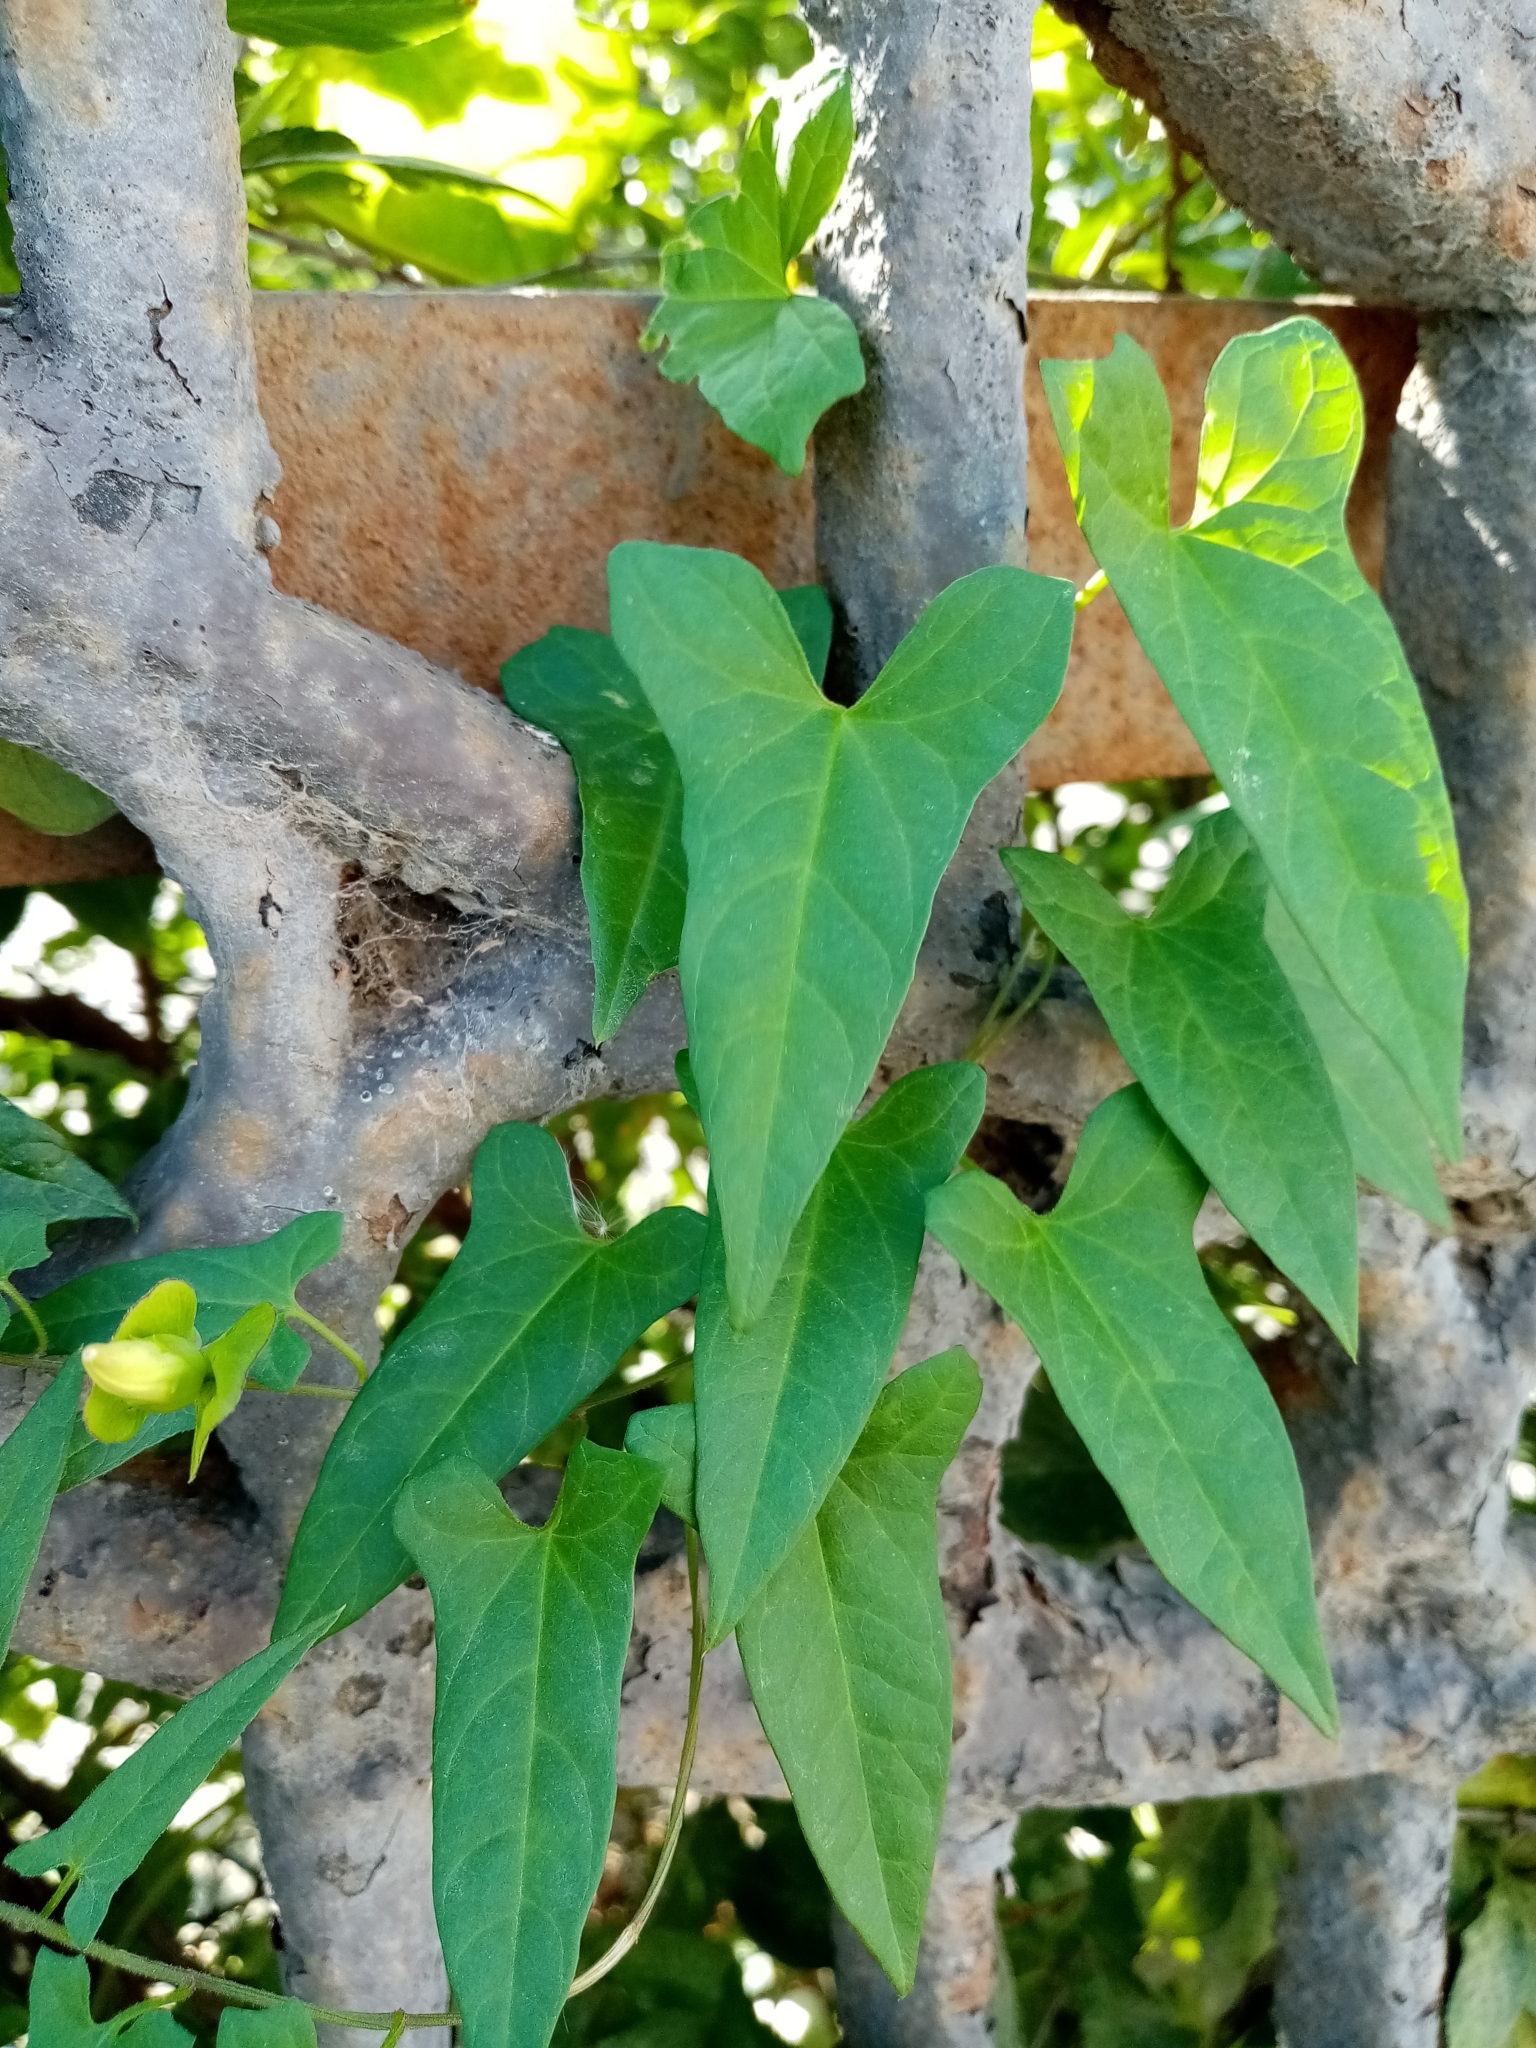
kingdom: Plantae
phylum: Tracheophyta
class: Magnoliopsida
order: Solanales
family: Convolvulaceae
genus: Calystegia
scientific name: Calystegia sepium
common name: Hedge bindweed
